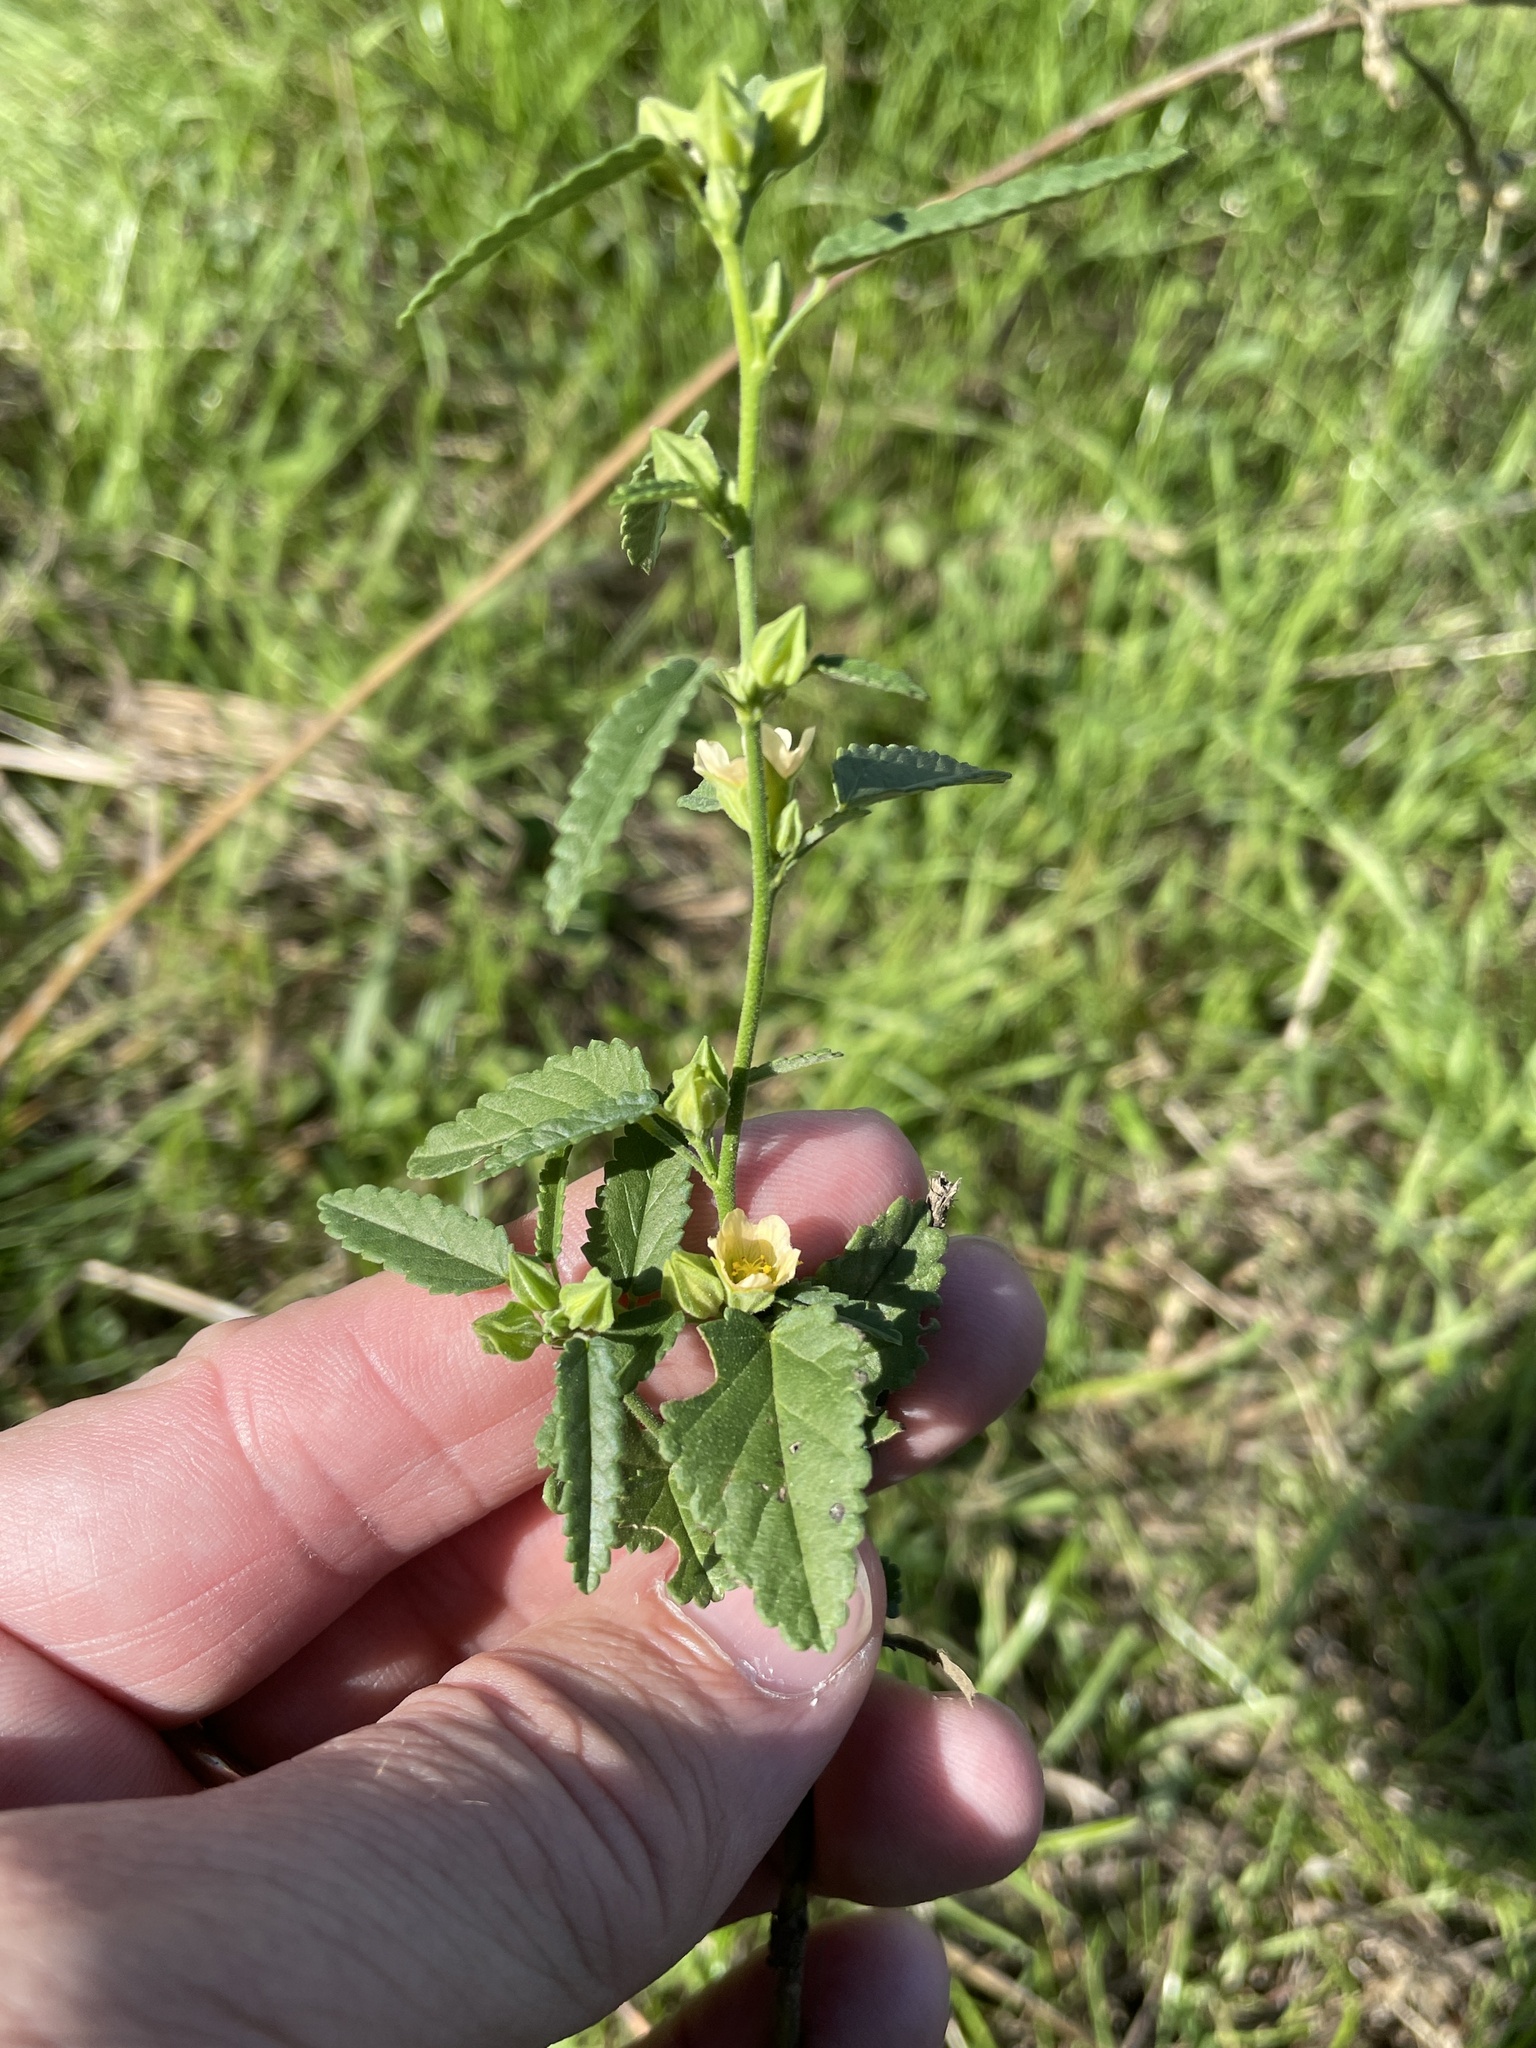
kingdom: Plantae
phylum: Tracheophyta
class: Magnoliopsida
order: Malvales
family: Malvaceae
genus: Sida
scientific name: Sida spinosa
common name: Prickly fanpetals
